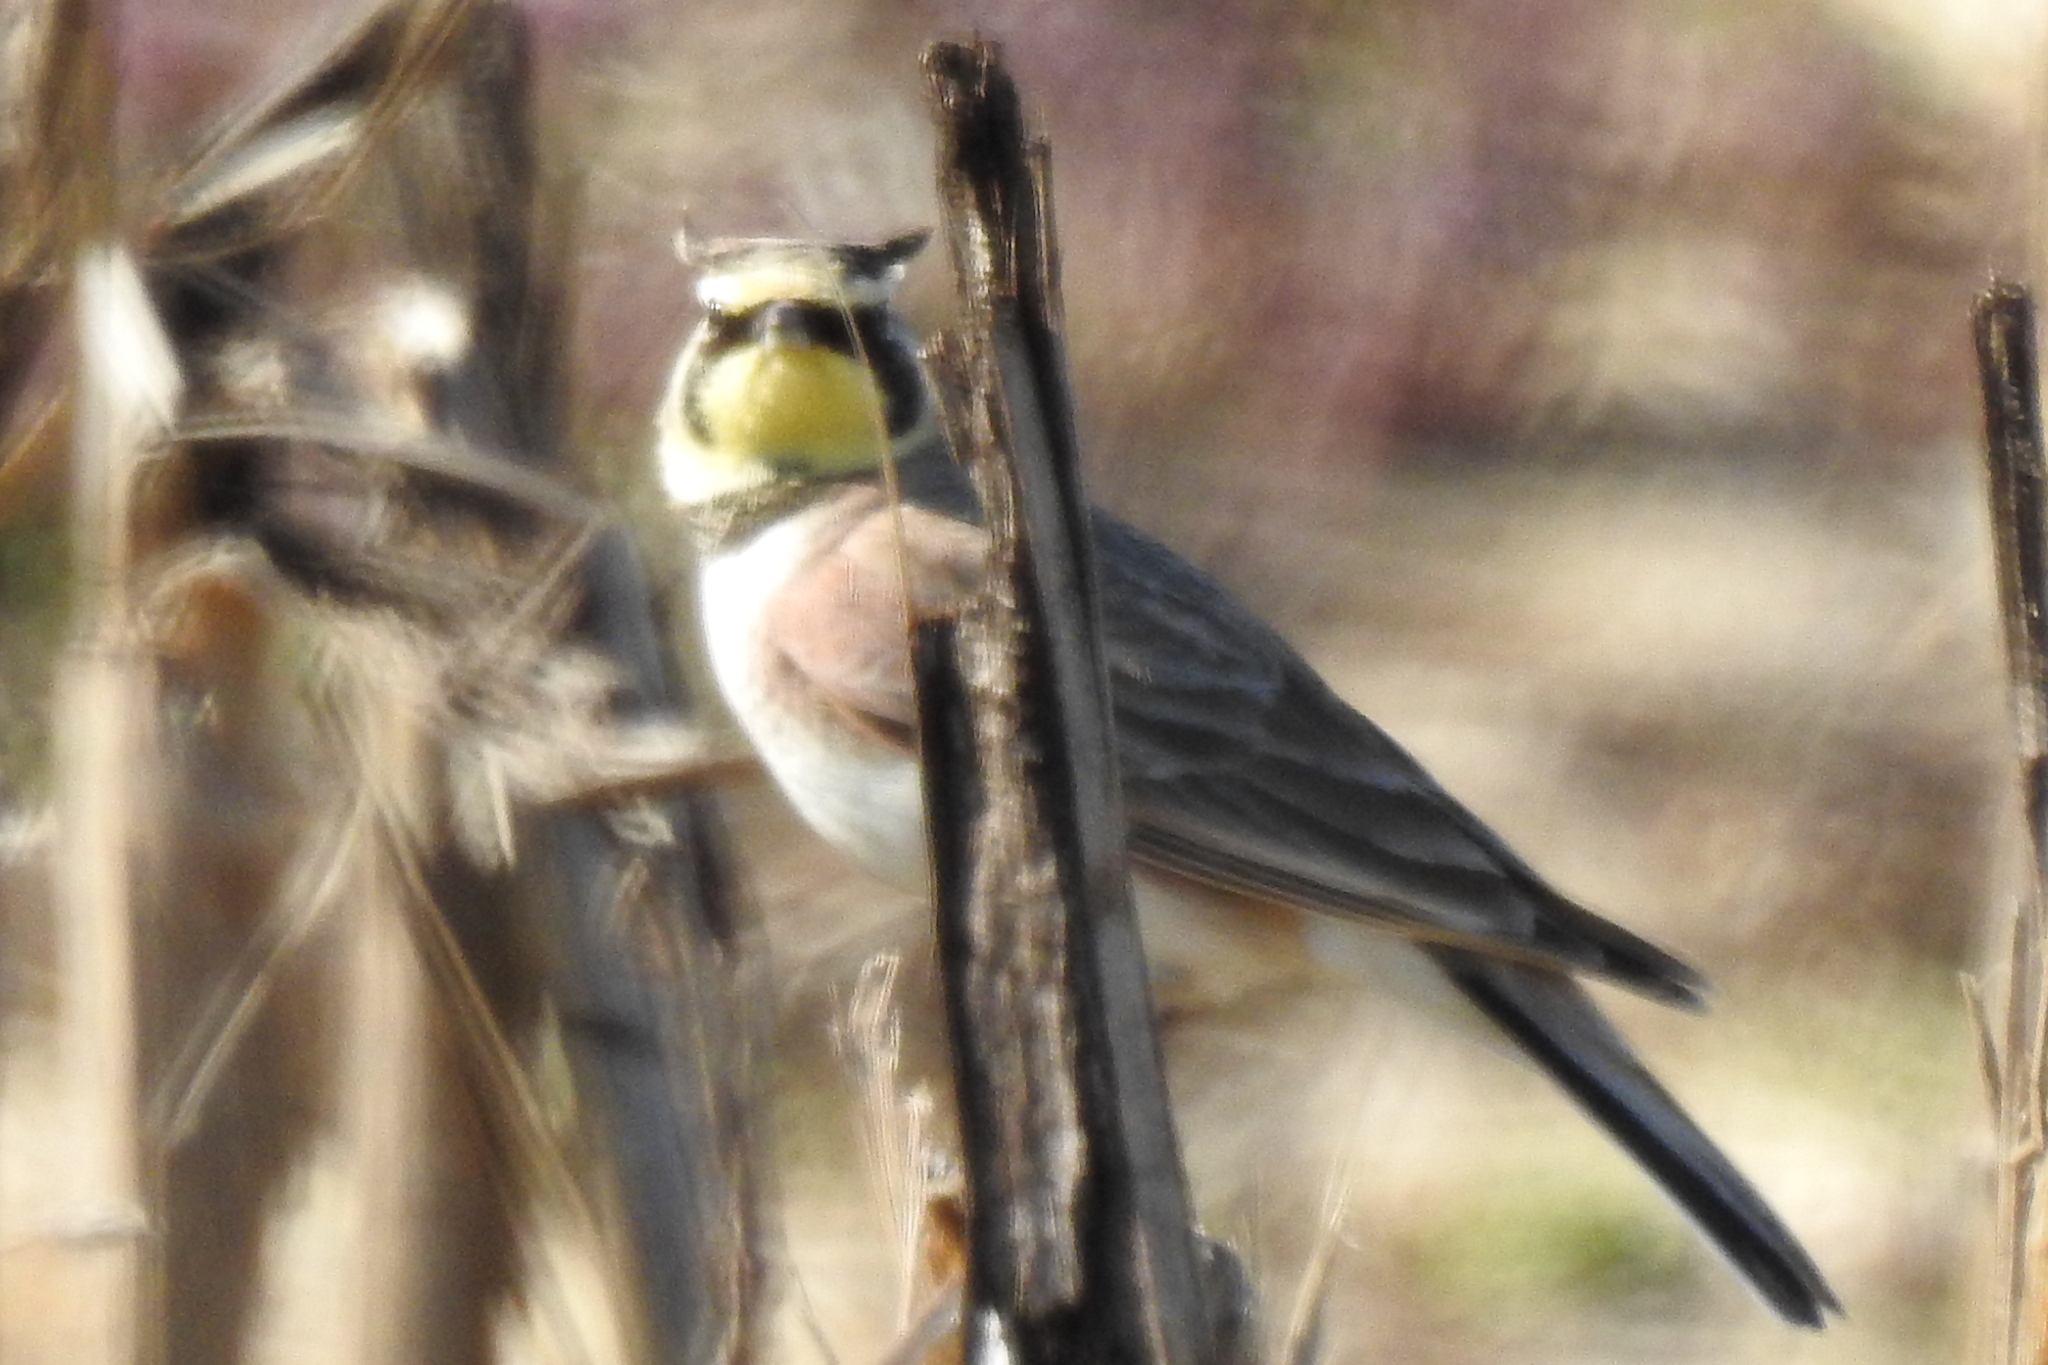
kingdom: Animalia
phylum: Chordata
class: Aves
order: Passeriformes
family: Alaudidae
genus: Eremophila
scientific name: Eremophila alpestris
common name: Horned lark
